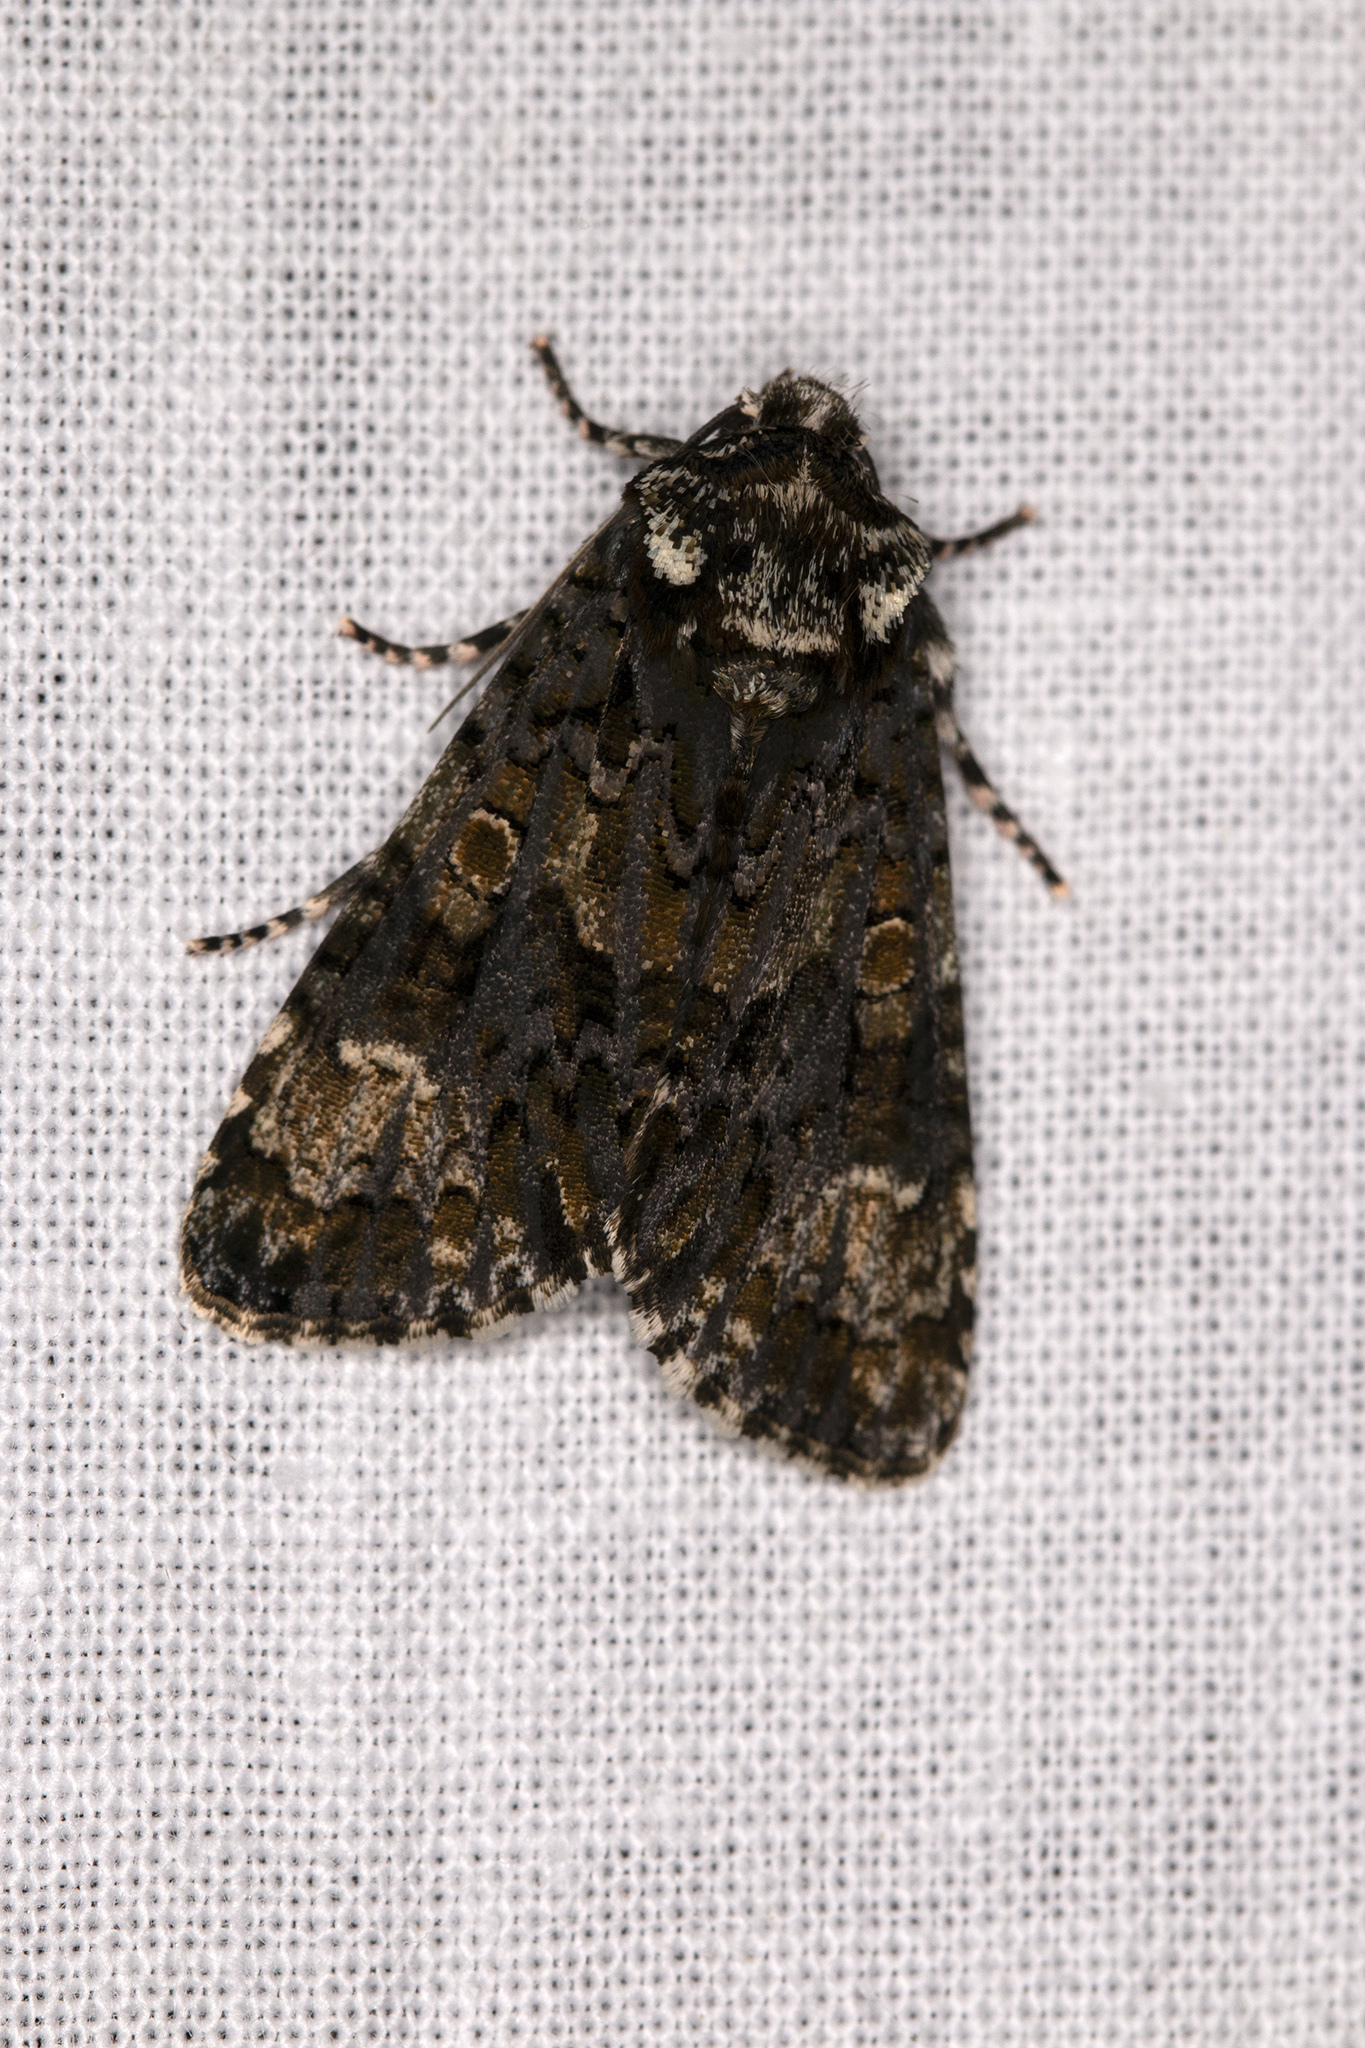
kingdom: Animalia
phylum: Arthropoda
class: Insecta
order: Lepidoptera
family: Noctuidae
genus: Craniophora
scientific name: Craniophora ligustri
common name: Coronet
